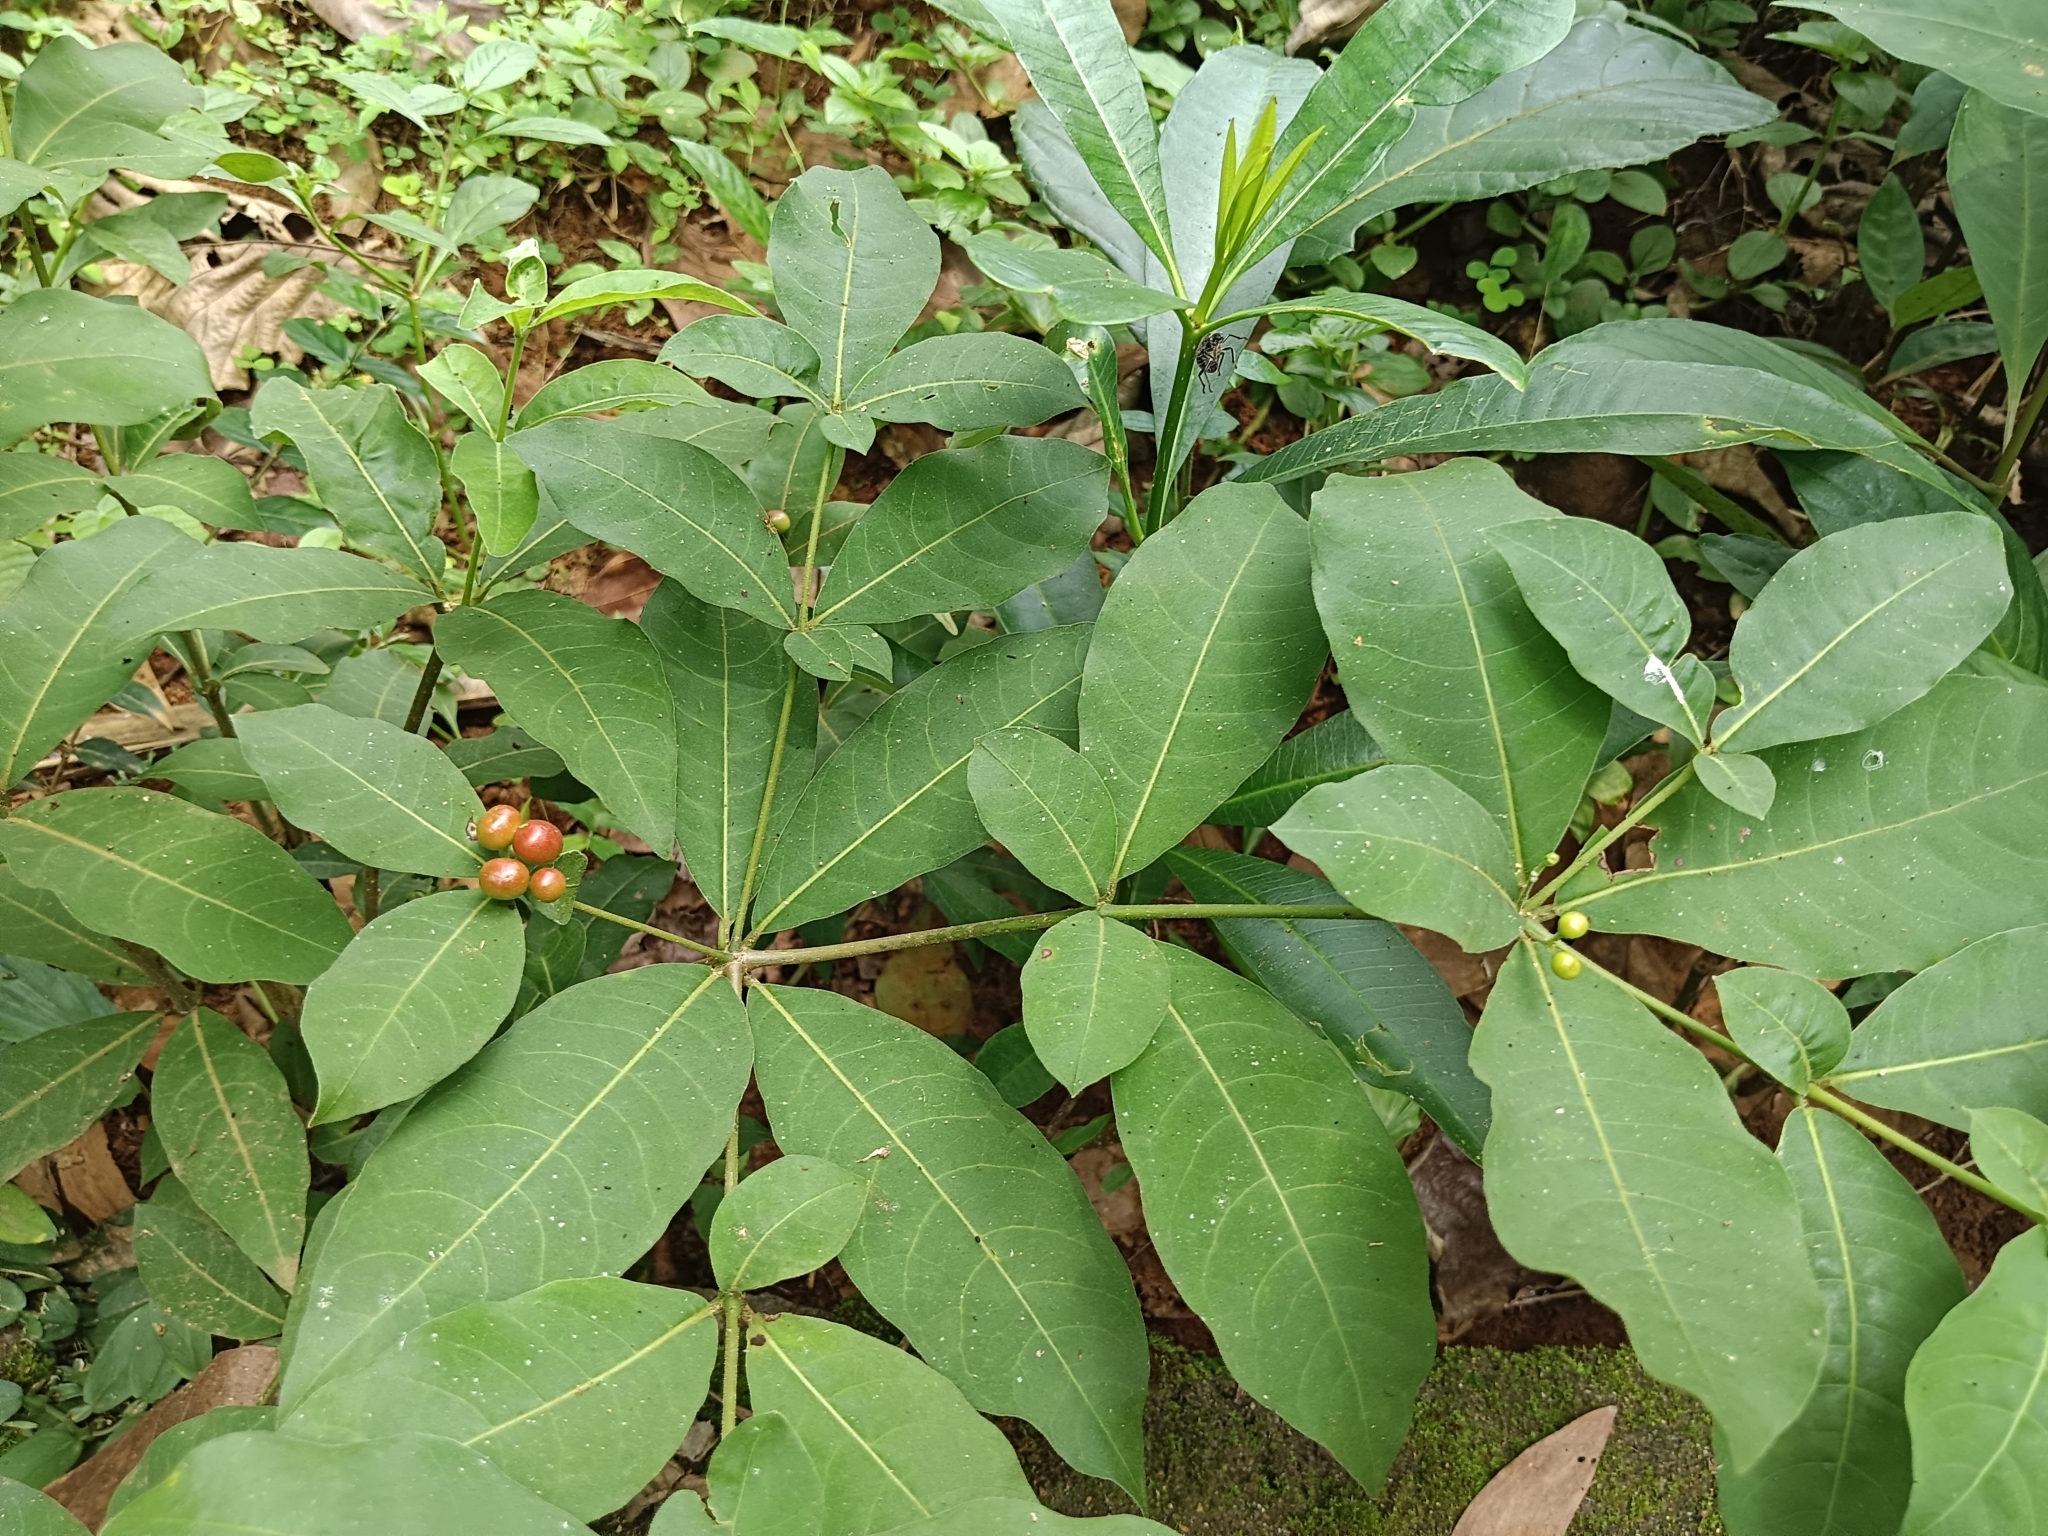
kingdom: Plantae
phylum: Tracheophyta
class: Magnoliopsida
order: Gentianales
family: Apocynaceae
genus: Rauvolfia
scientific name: Rauvolfia tetraphylla
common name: Four-leaf devil-pepper
